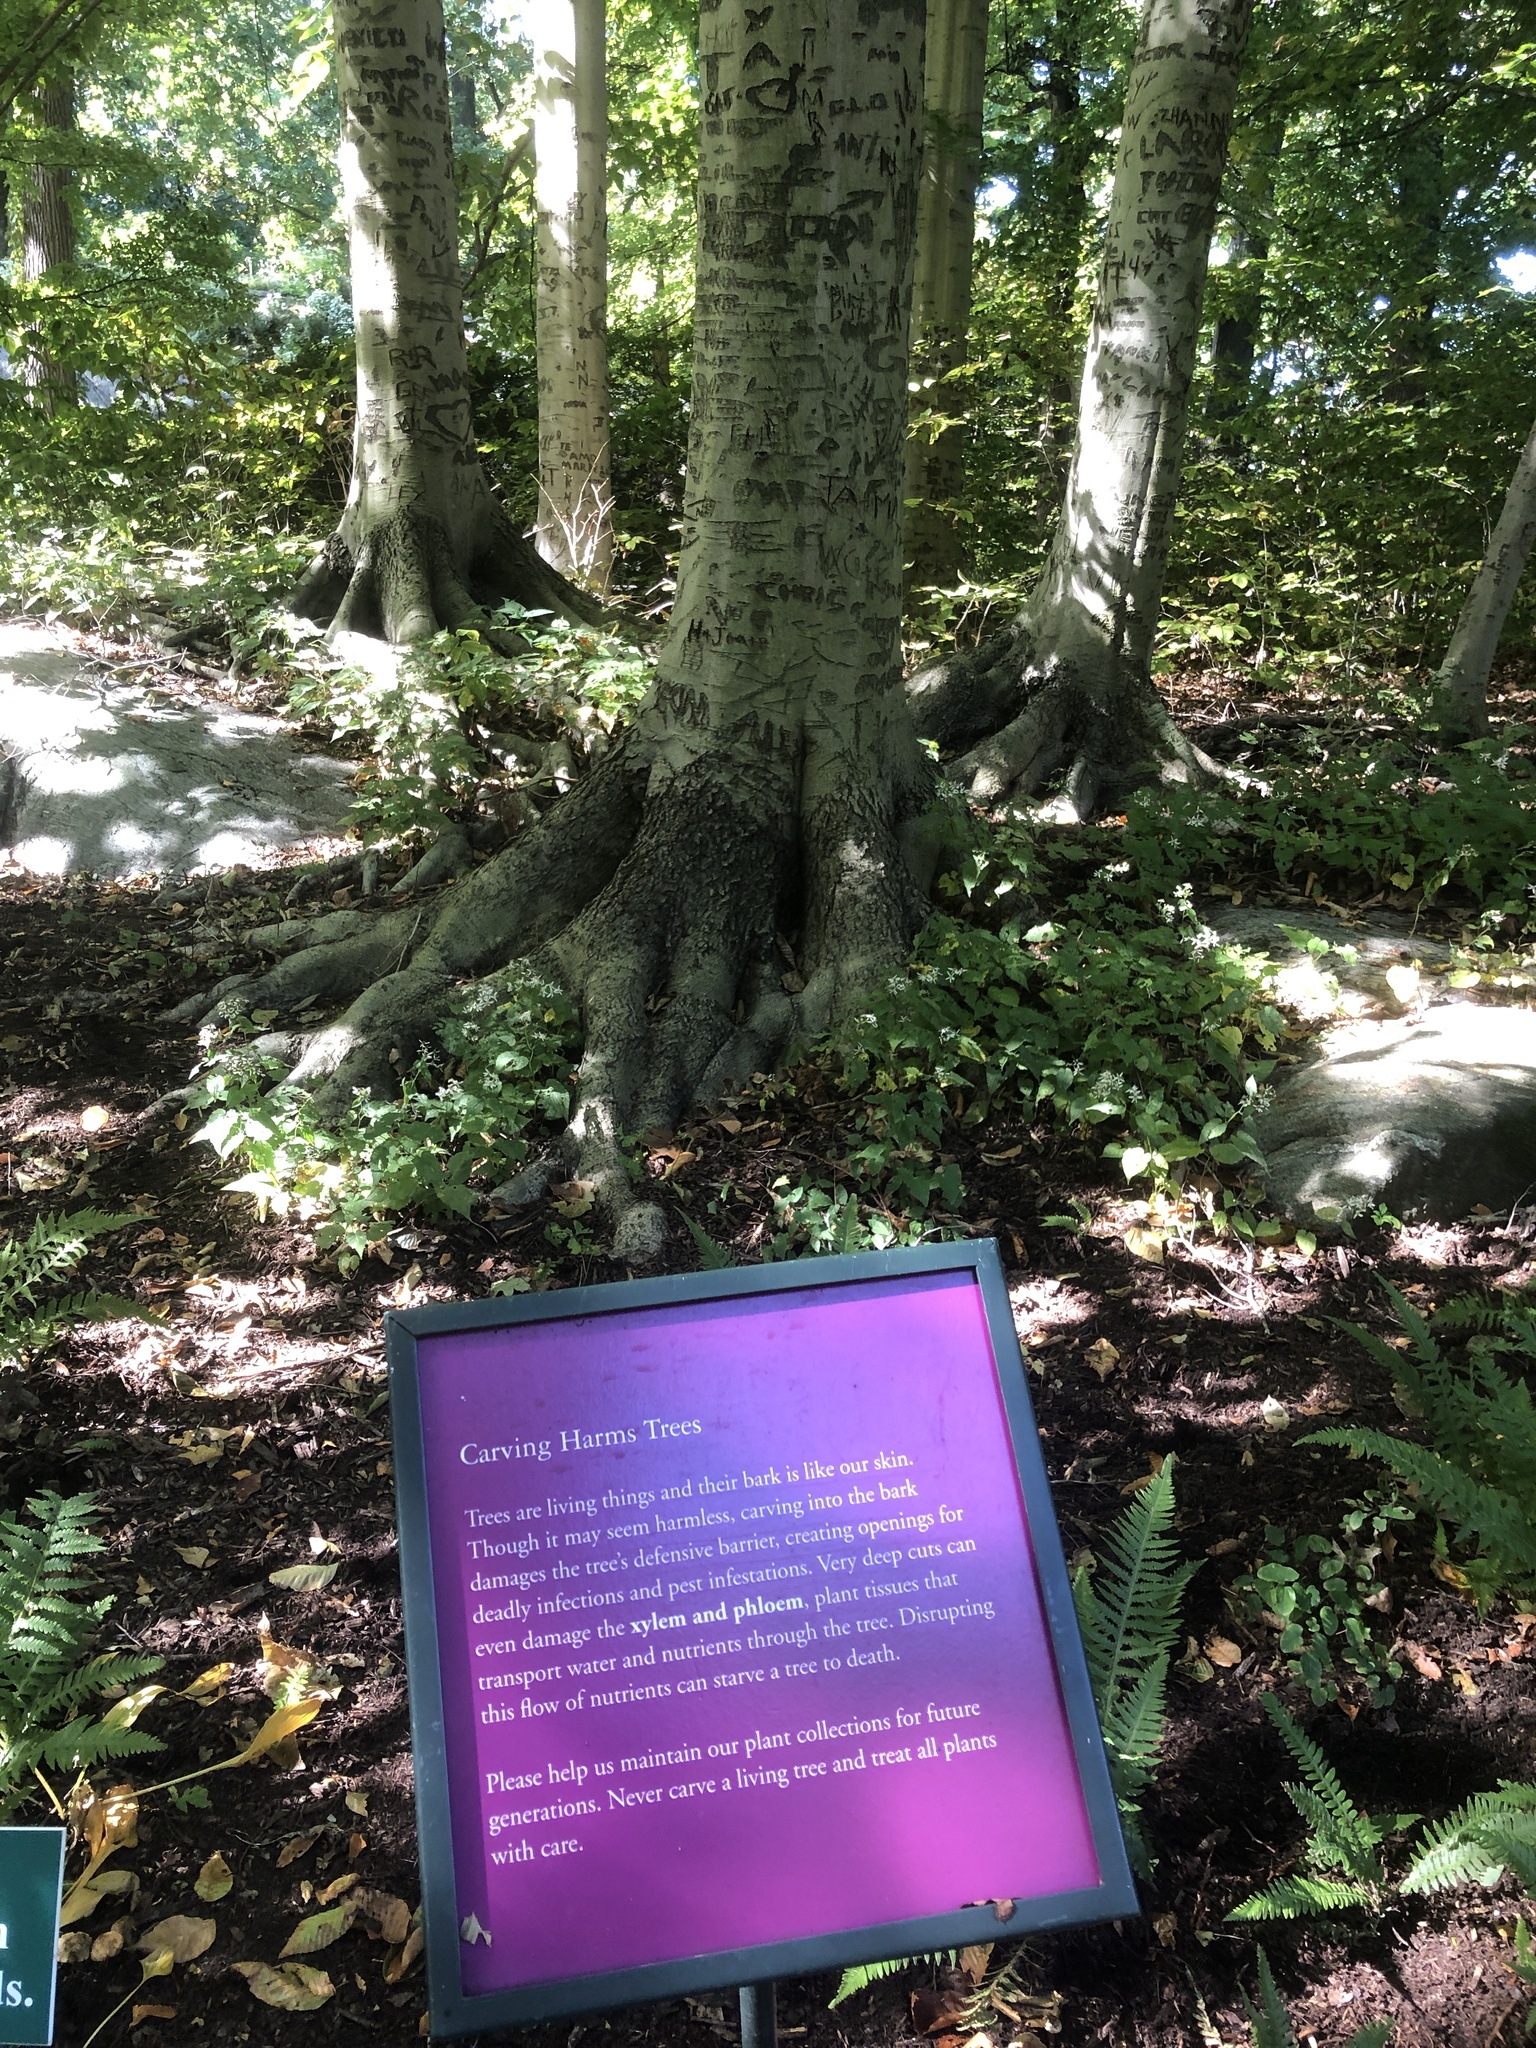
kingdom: Plantae
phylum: Tracheophyta
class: Magnoliopsida
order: Fagales
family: Fagaceae
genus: Fagus
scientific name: Fagus grandifolia
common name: American beech
